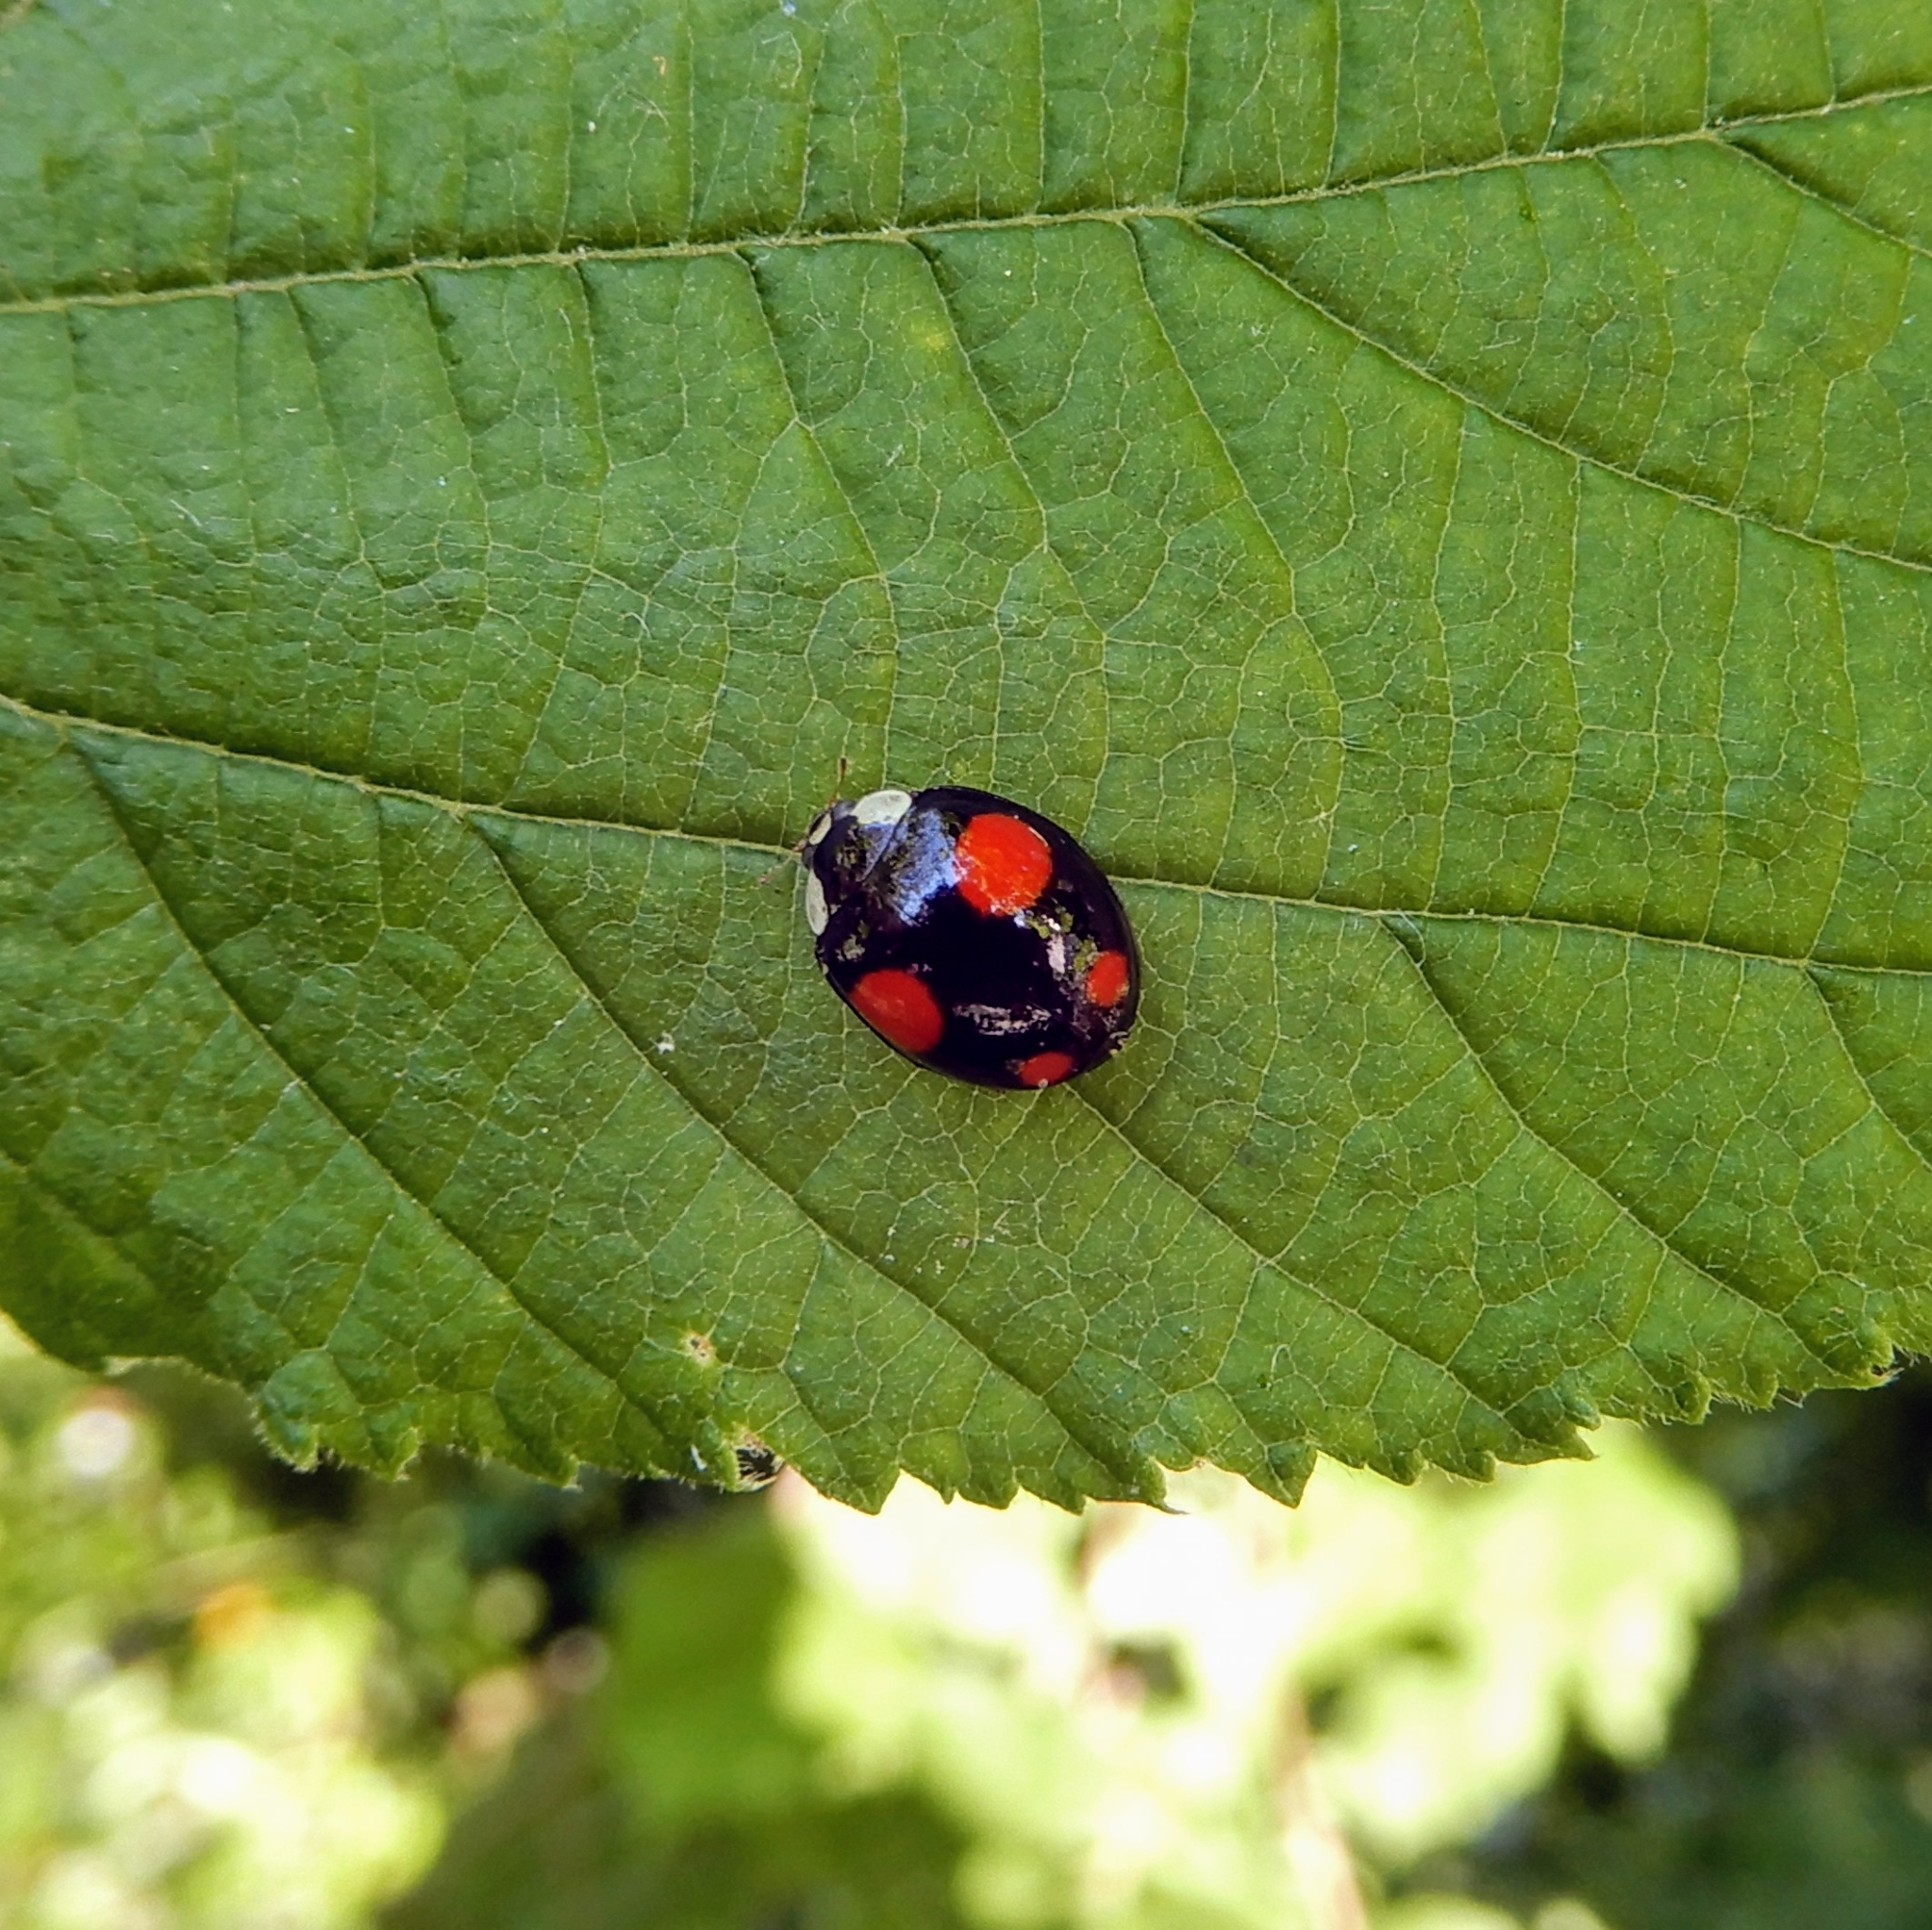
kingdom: Animalia
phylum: Arthropoda
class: Insecta
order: Coleoptera
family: Coccinellidae
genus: Harmonia
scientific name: Harmonia axyridis
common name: Harlequin ladybird
